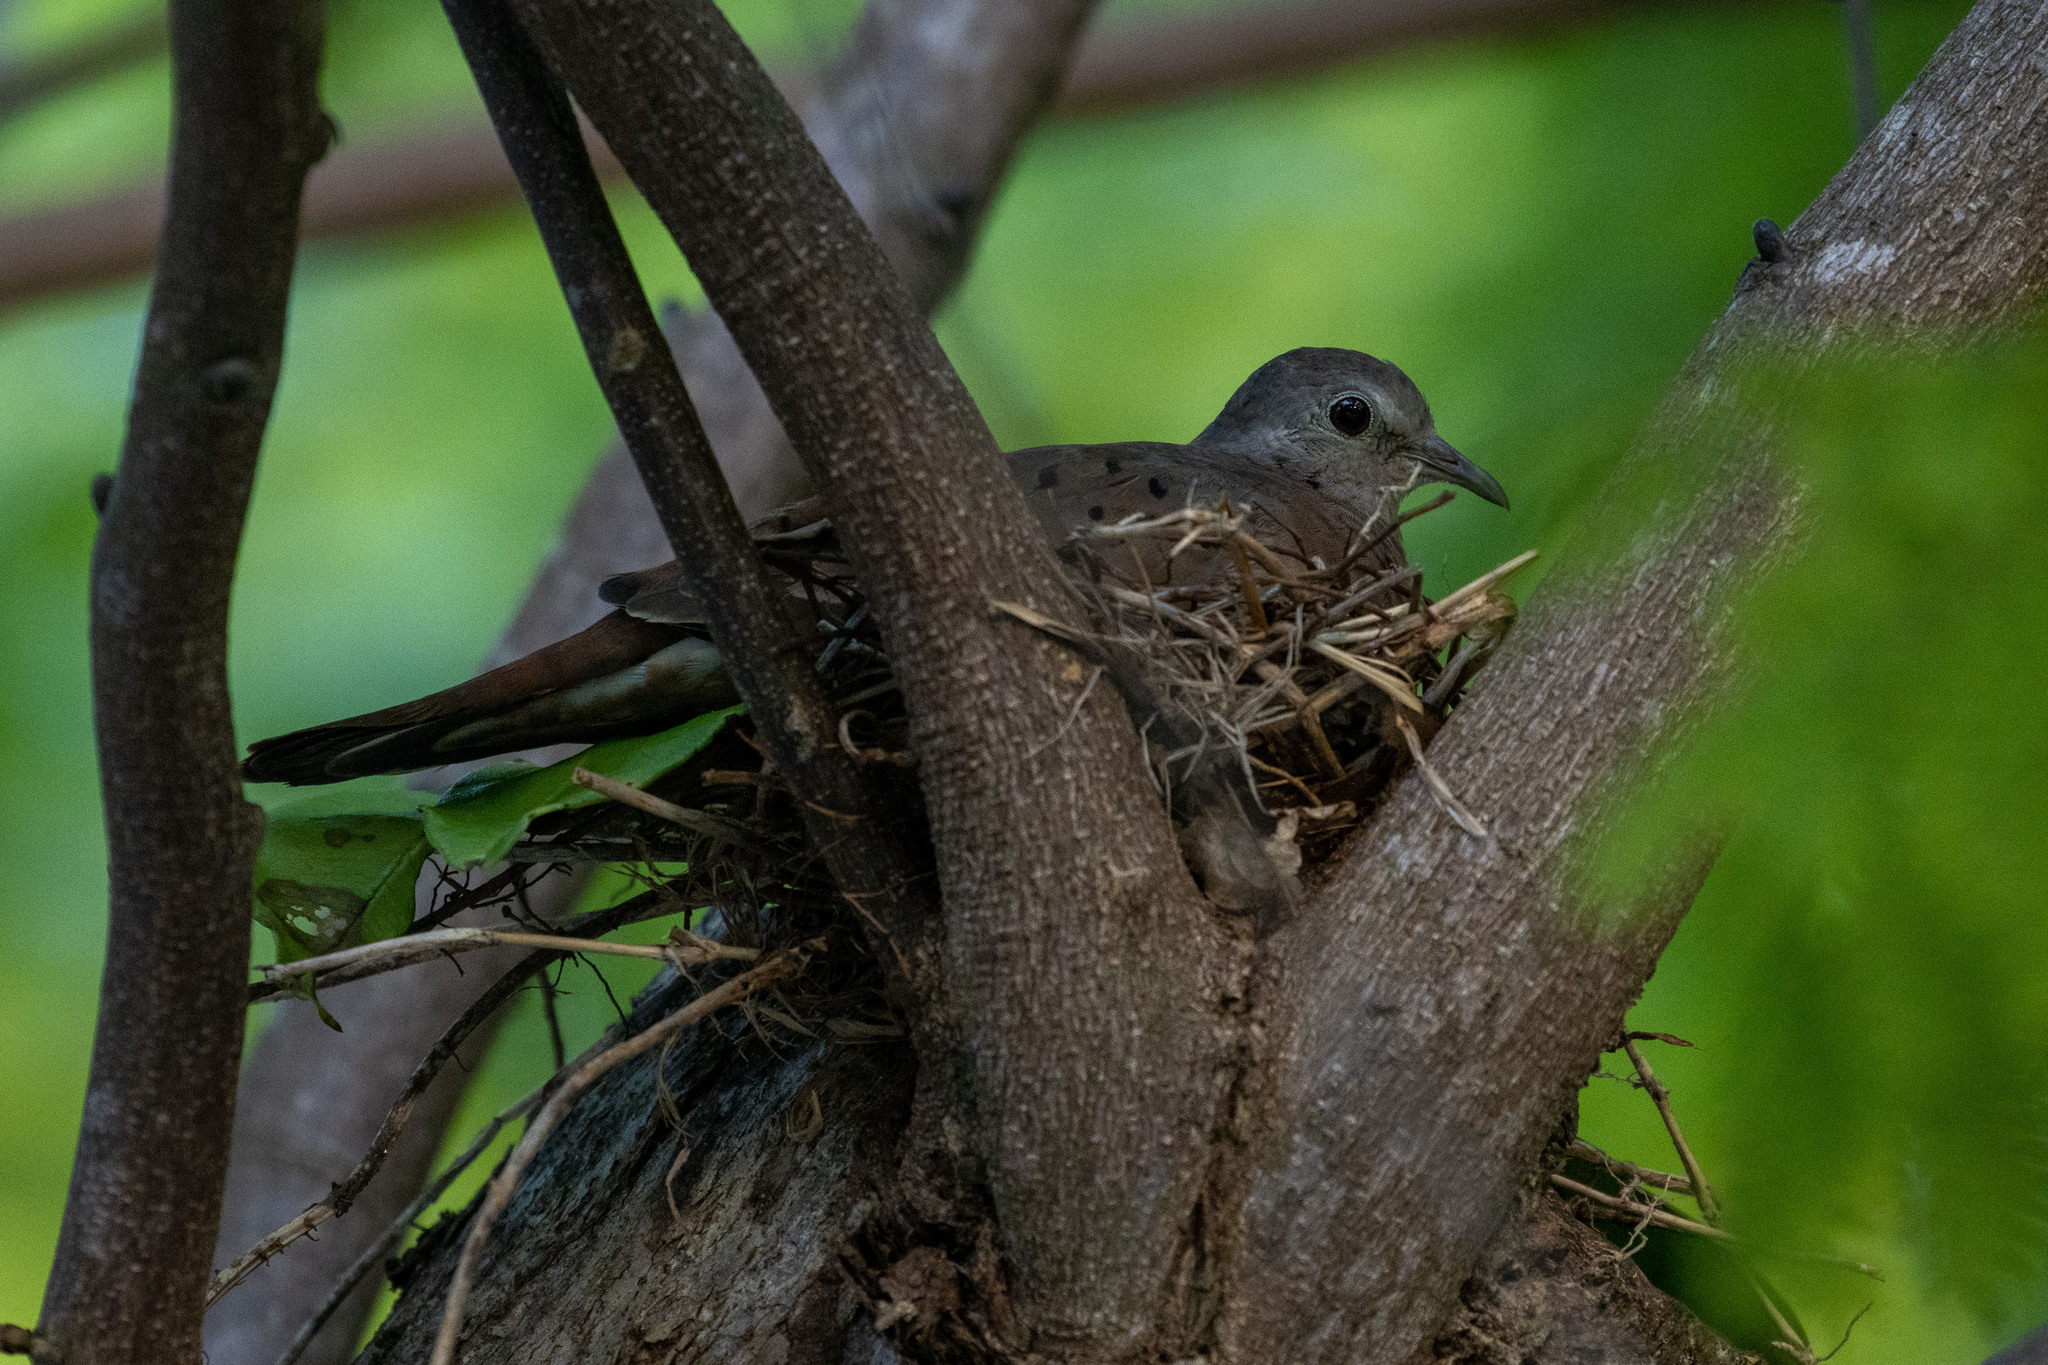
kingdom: Animalia
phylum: Chordata
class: Aves
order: Columbiformes
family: Columbidae
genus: Columbina
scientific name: Columbina talpacoti
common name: Ruddy ground dove
